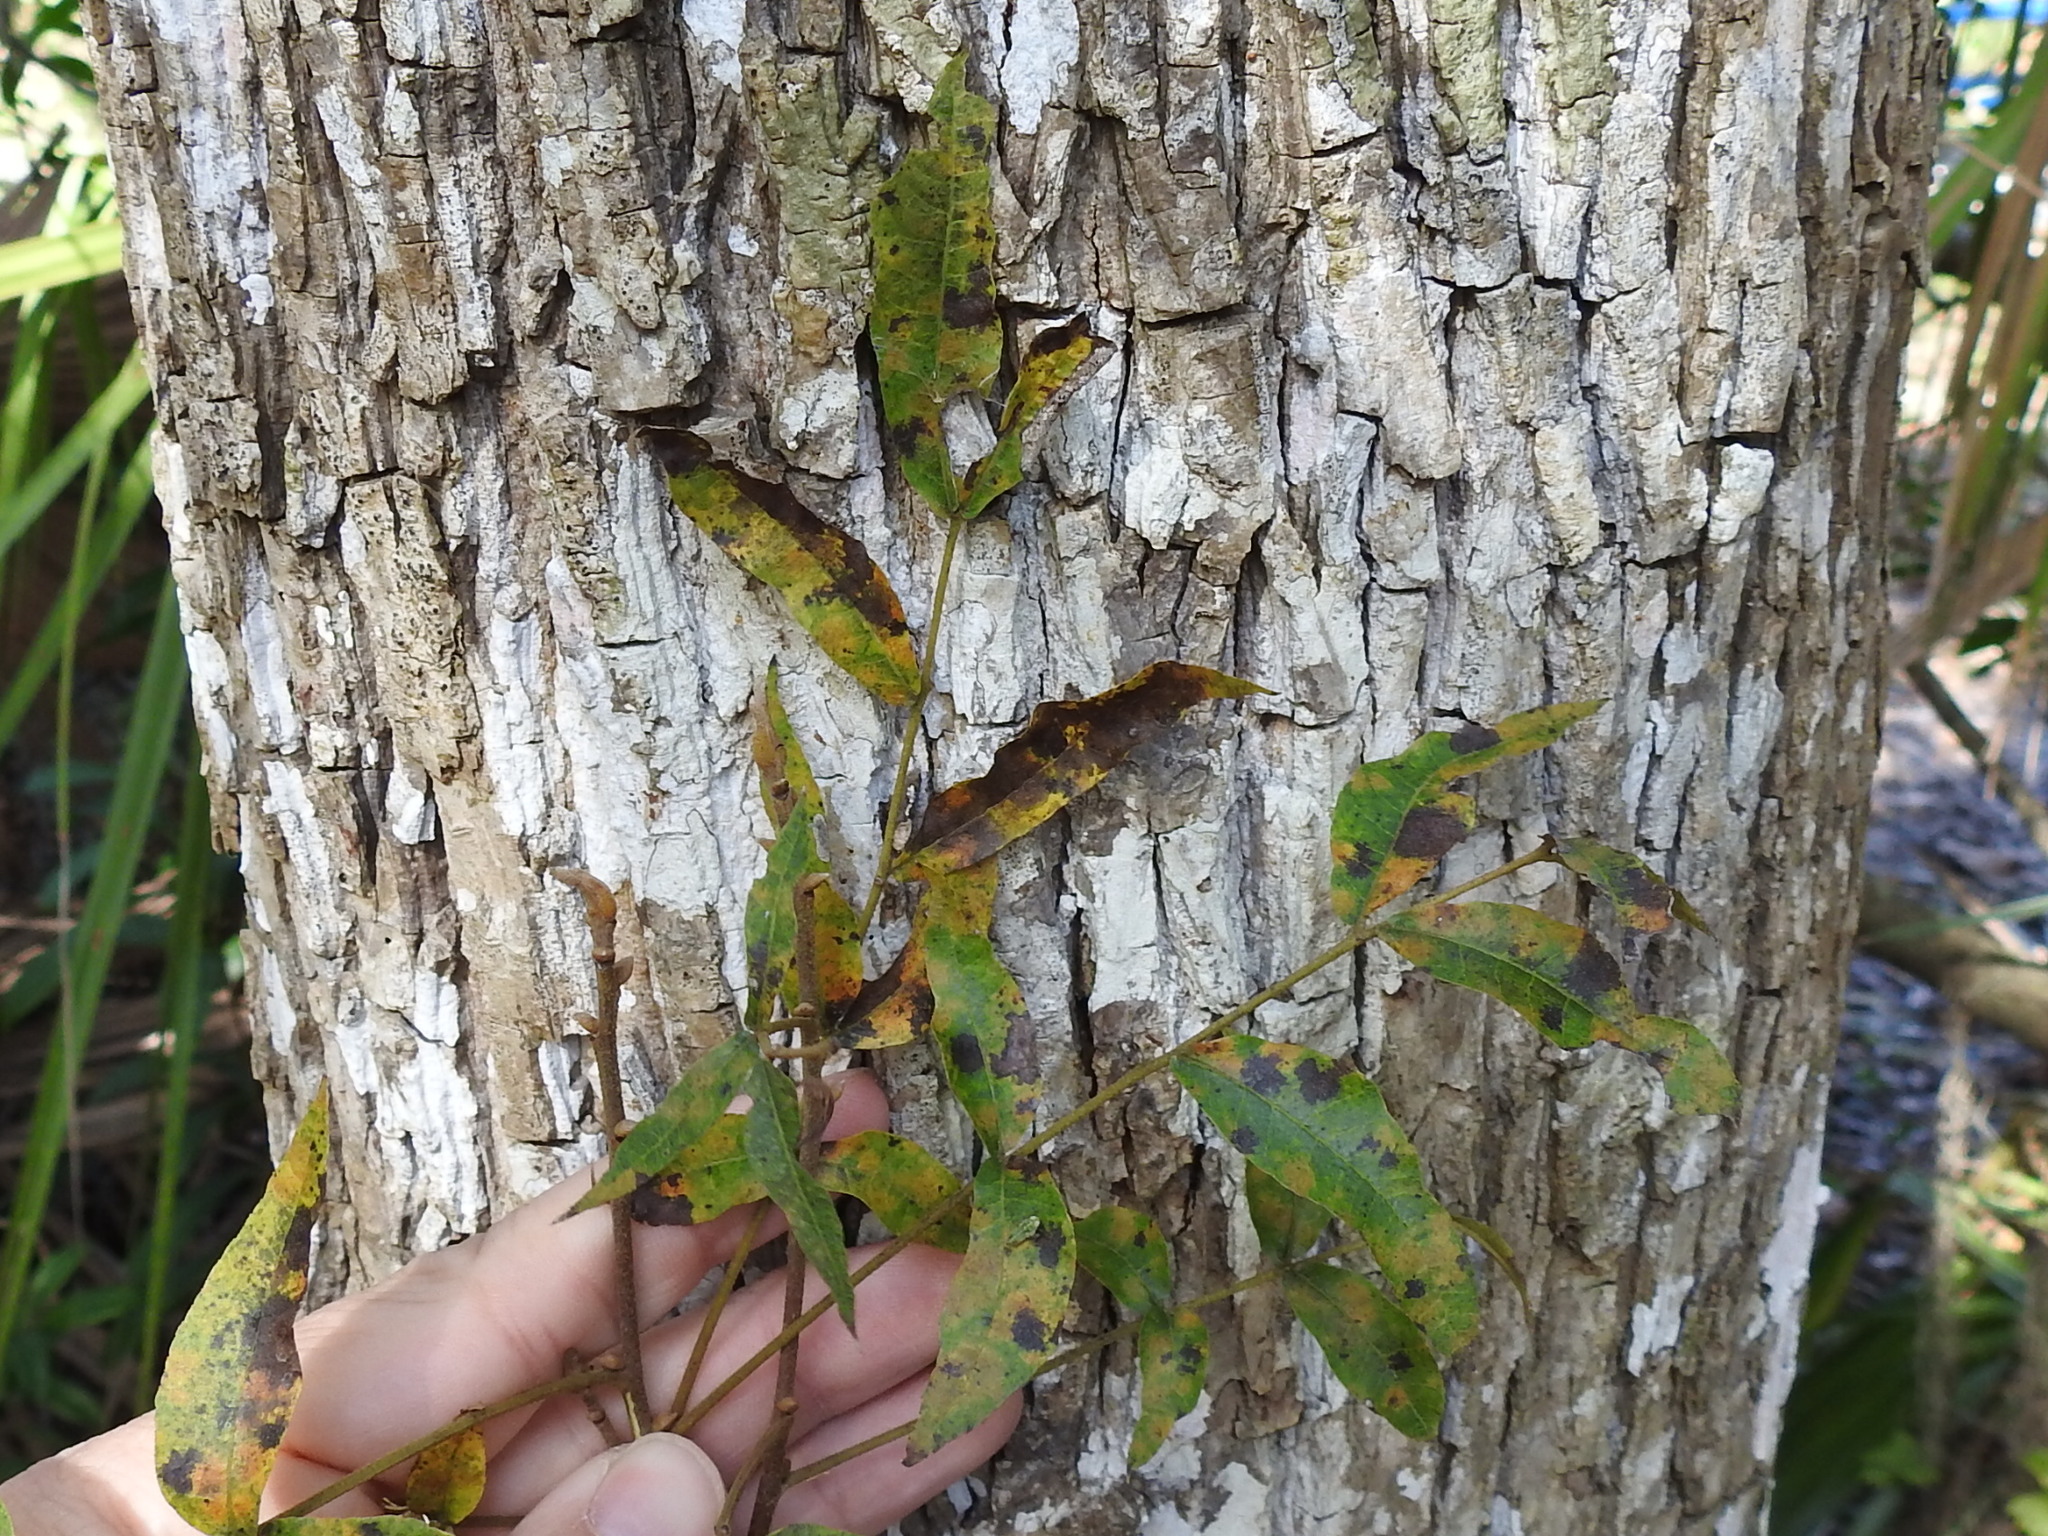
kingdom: Plantae
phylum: Tracheophyta
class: Magnoliopsida
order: Fagales
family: Juglandaceae
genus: Carya
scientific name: Carya aquatica
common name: Water hickory
